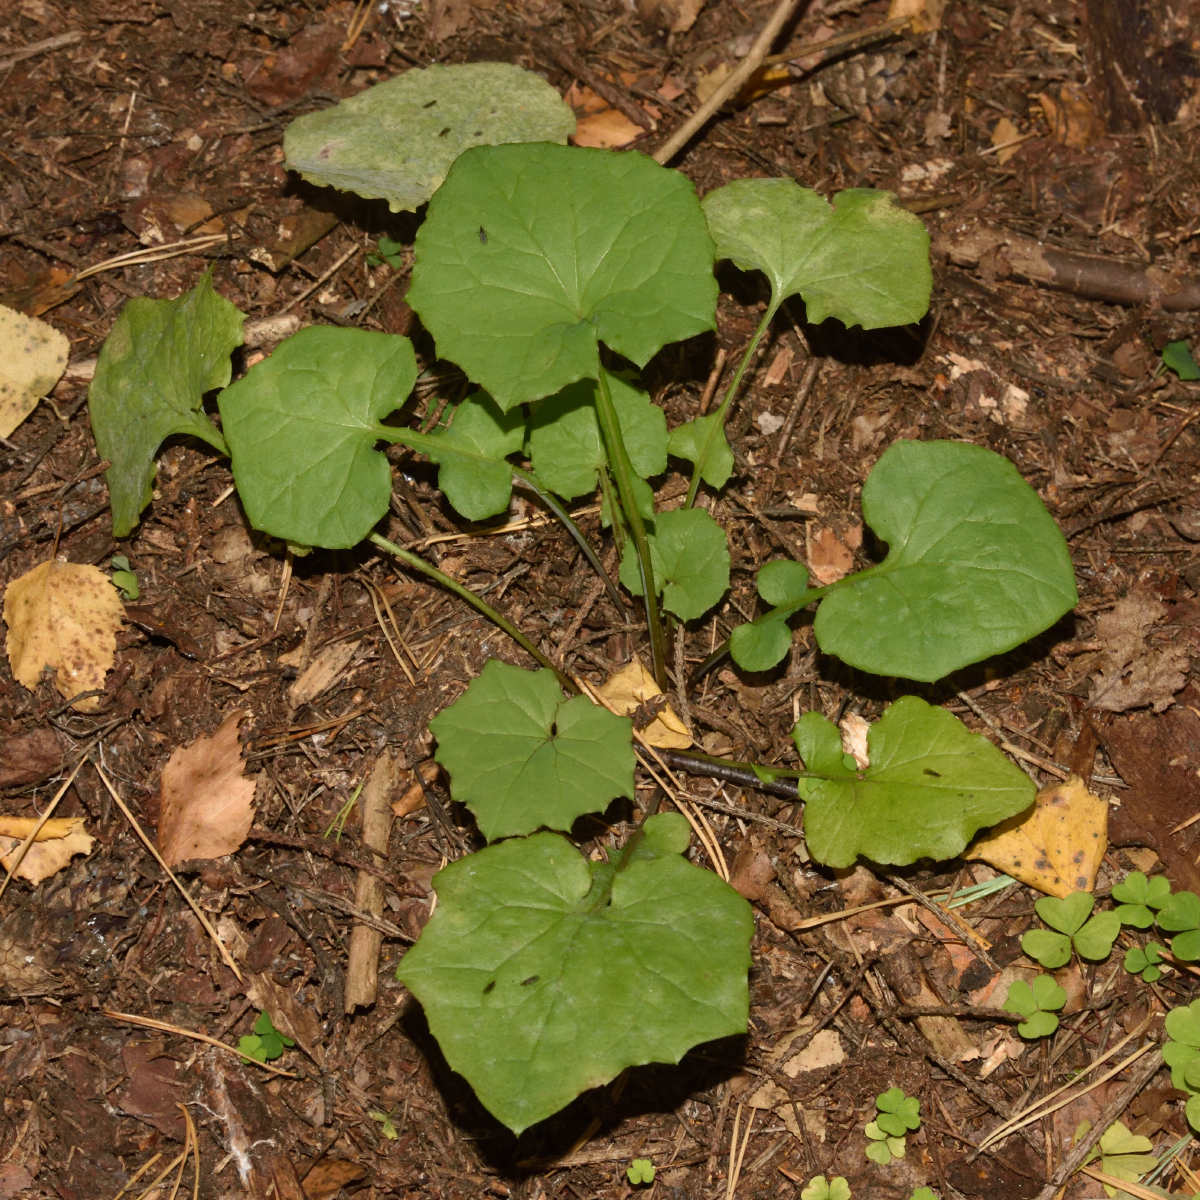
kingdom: Plantae
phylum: Tracheophyta
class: Magnoliopsida
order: Asterales
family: Asteraceae
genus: Mycelis
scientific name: Mycelis muralis
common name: Wall lettuce
